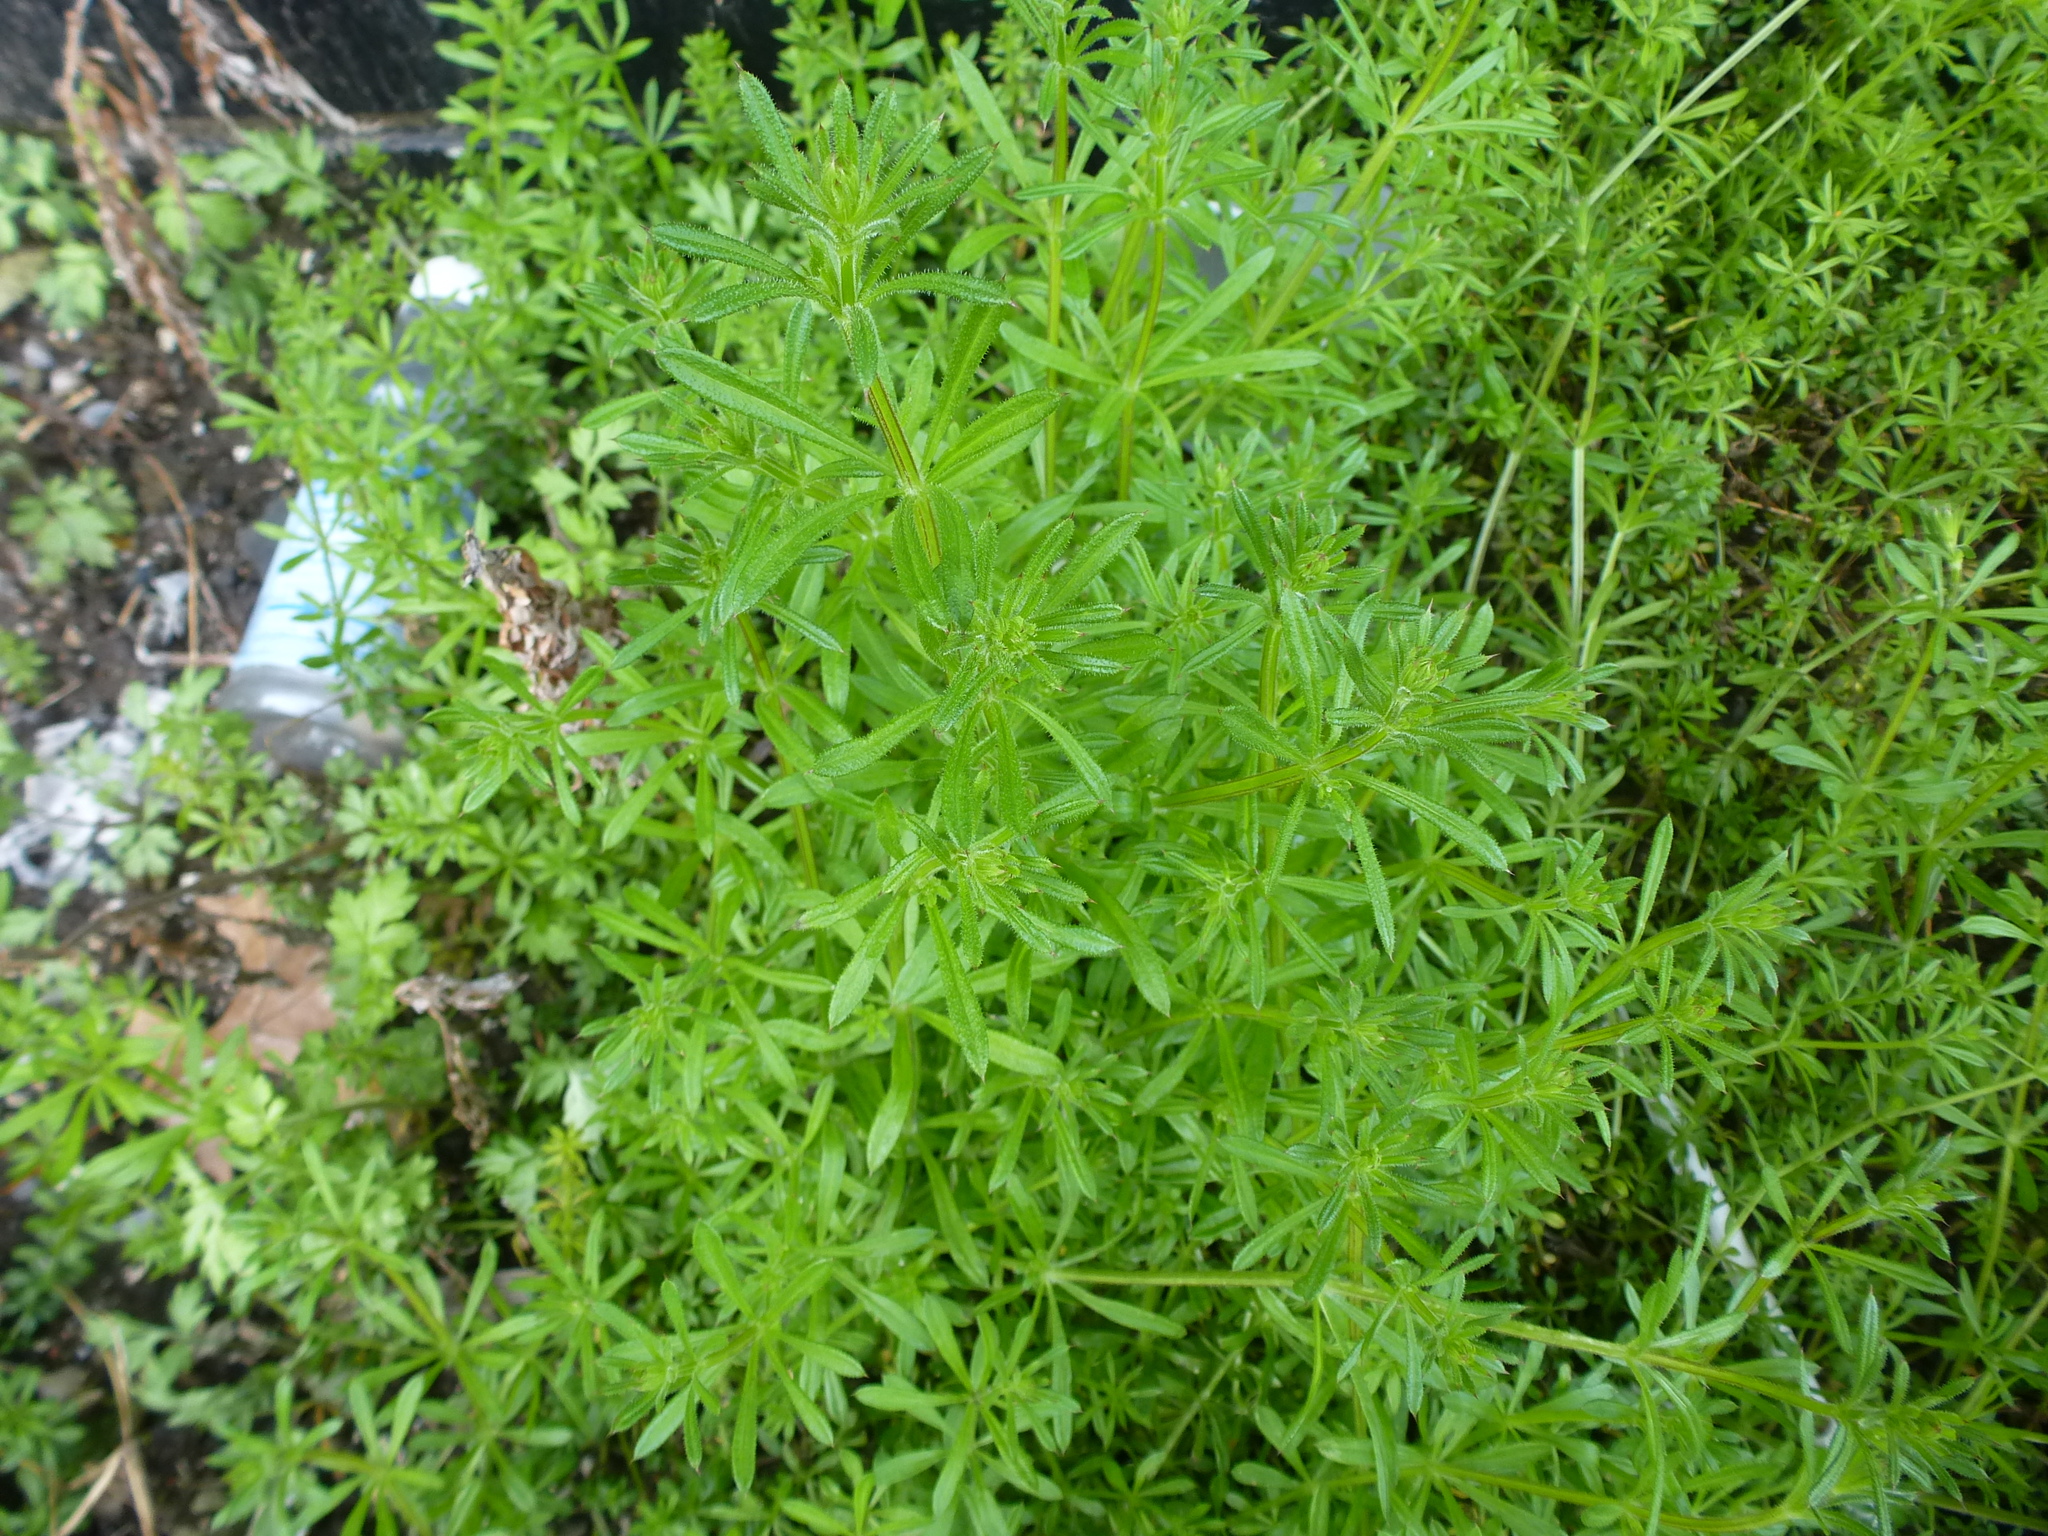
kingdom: Plantae
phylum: Tracheophyta
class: Magnoliopsida
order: Gentianales
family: Rubiaceae
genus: Galium
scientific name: Galium aparine
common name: Cleavers
